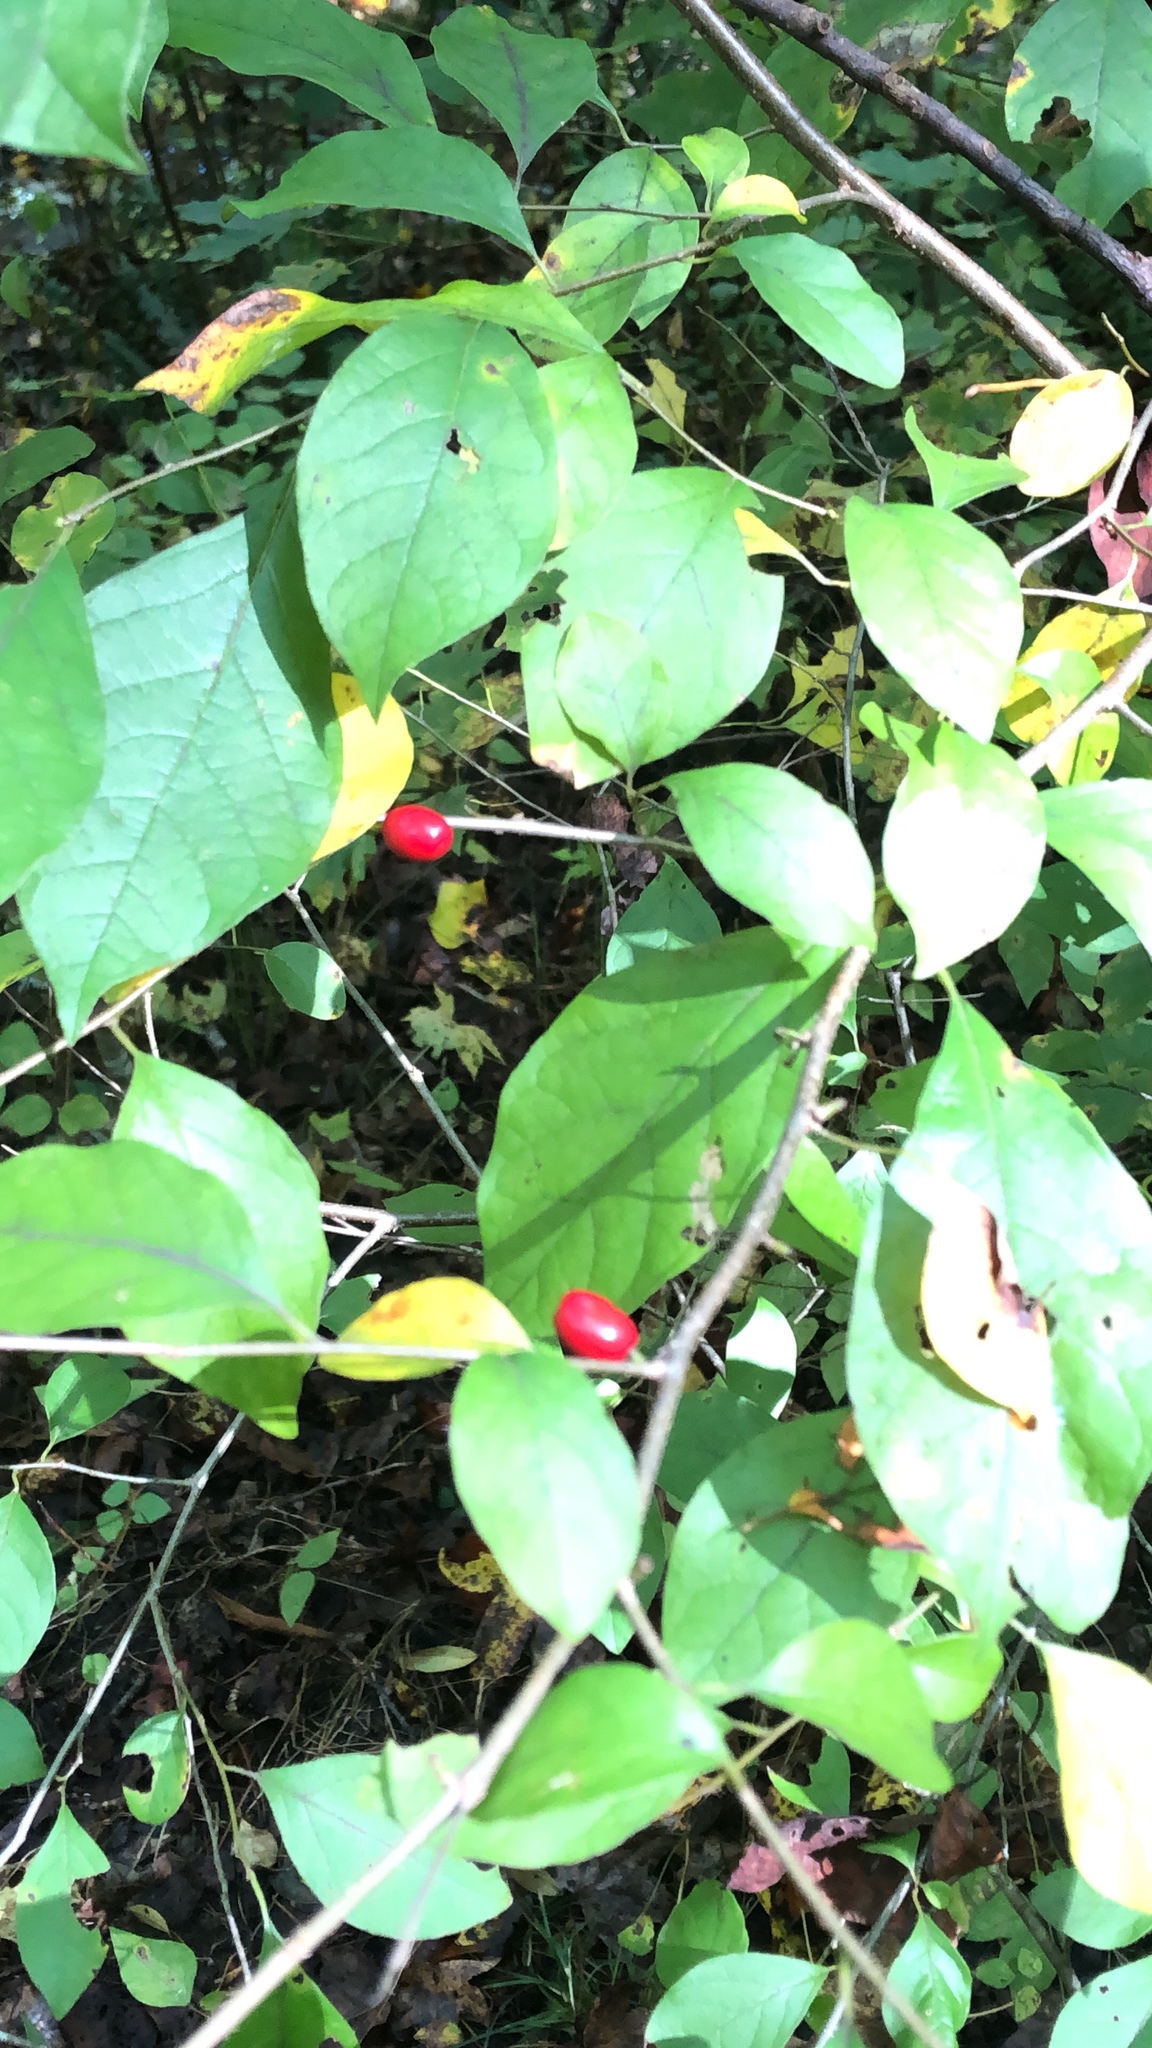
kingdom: Plantae
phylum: Tracheophyta
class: Magnoliopsida
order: Laurales
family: Lauraceae
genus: Lindera
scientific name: Lindera benzoin
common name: Spicebush
